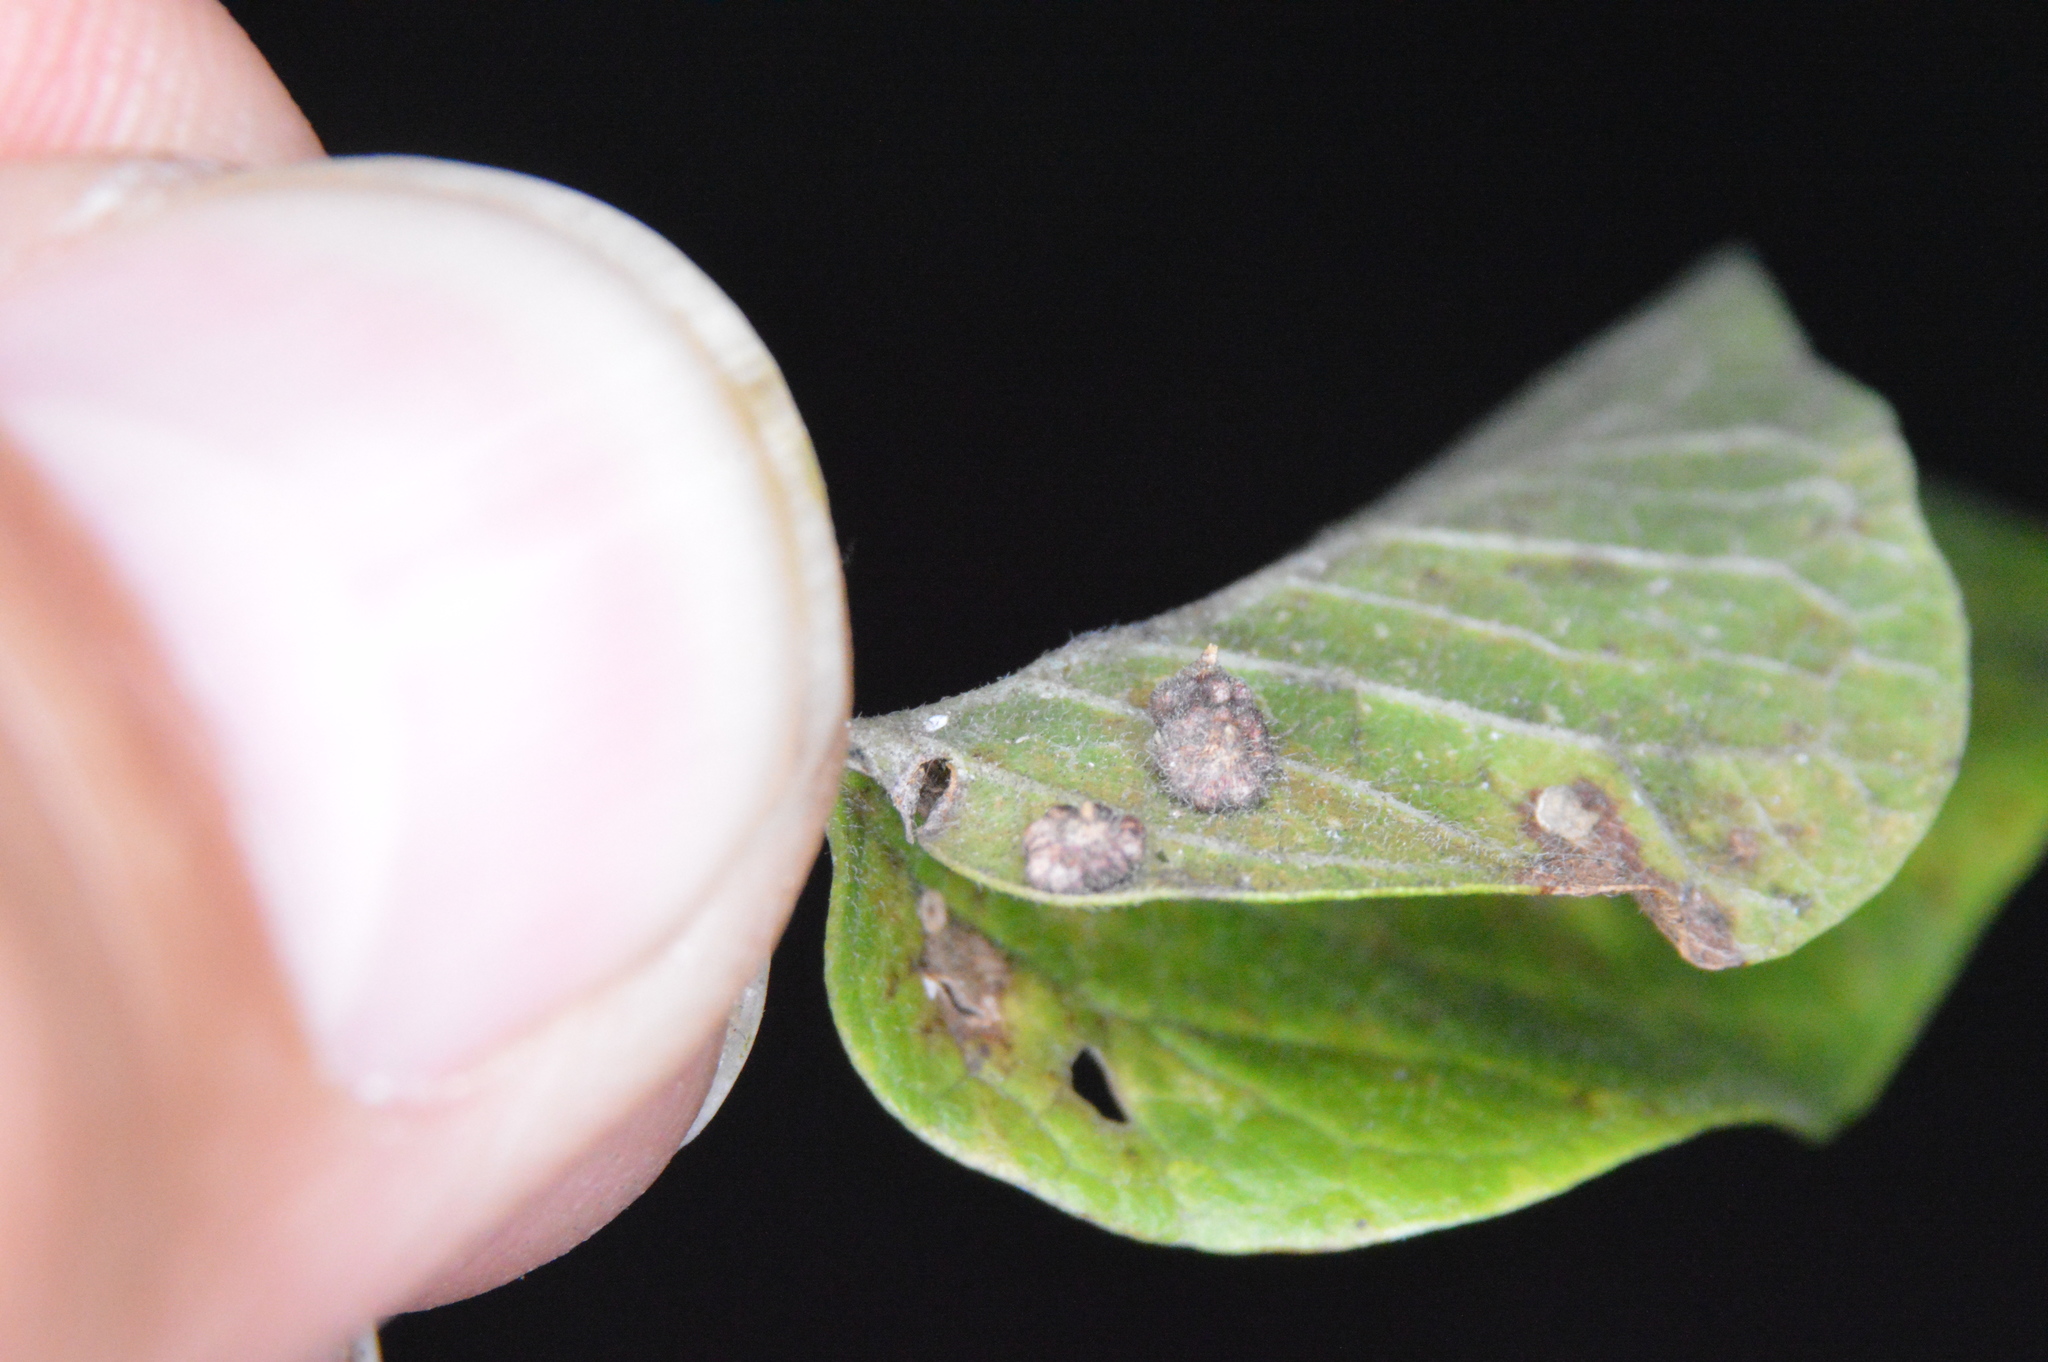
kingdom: Animalia
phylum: Arthropoda
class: Insecta
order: Diptera
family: Cecidomyiidae
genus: Celticecis
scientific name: Celticecis capsularis
